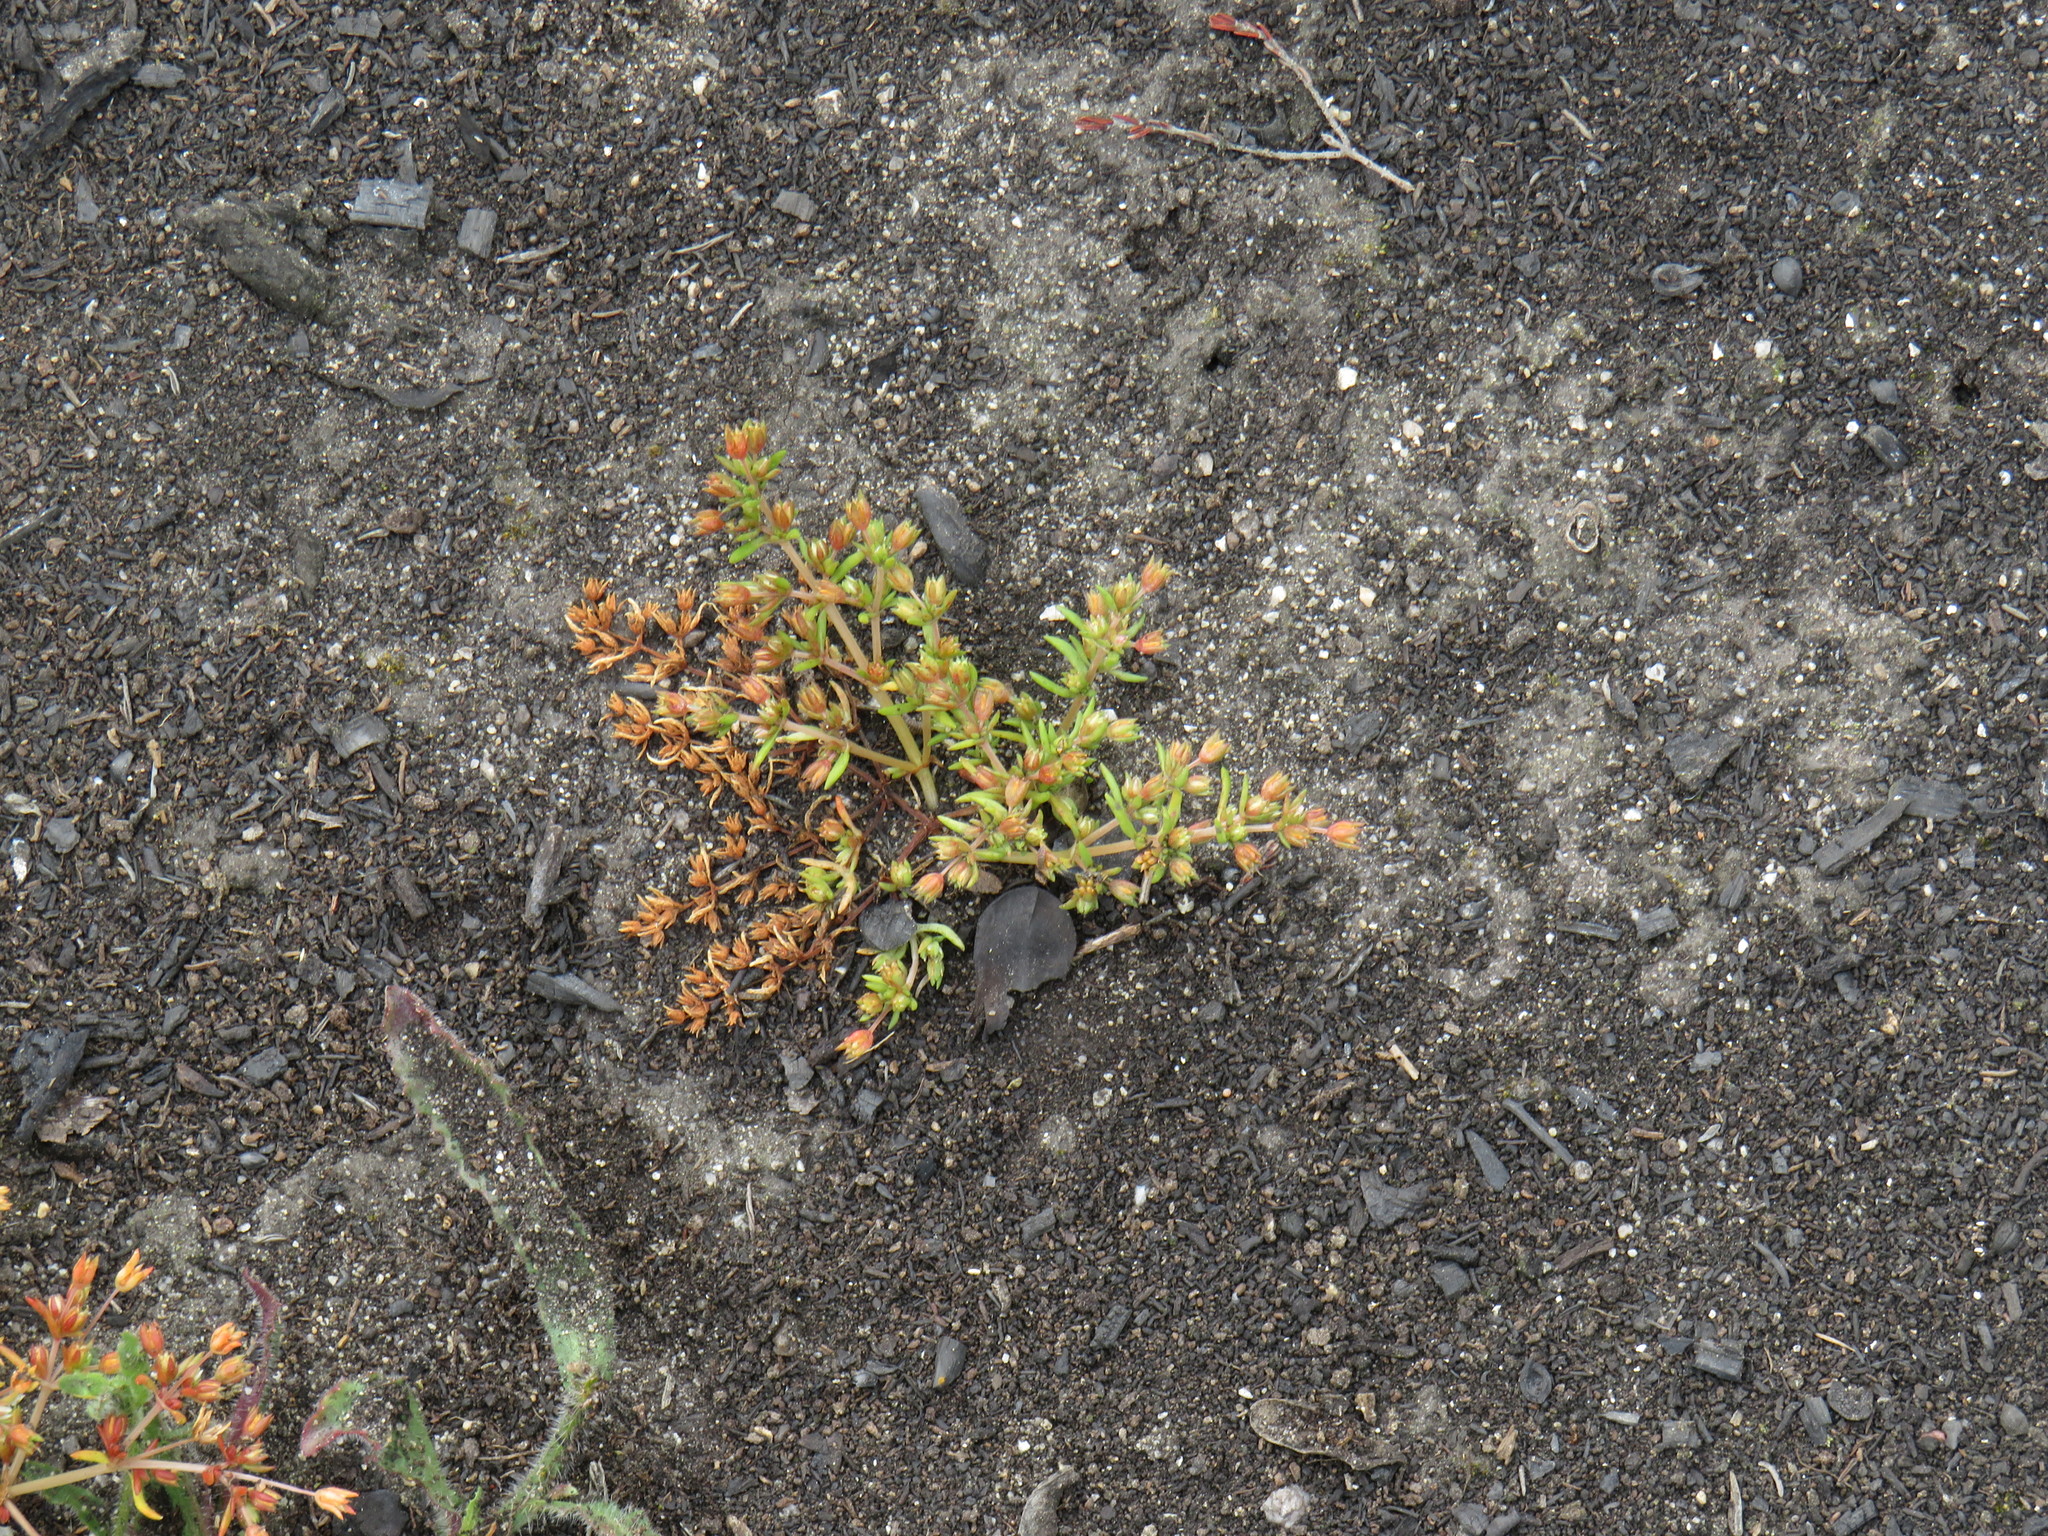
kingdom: Plantae
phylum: Tracheophyta
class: Magnoliopsida
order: Saxifragales
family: Crassulaceae
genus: Crassula
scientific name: Crassula decumbens
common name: Scilly pigmyweed
